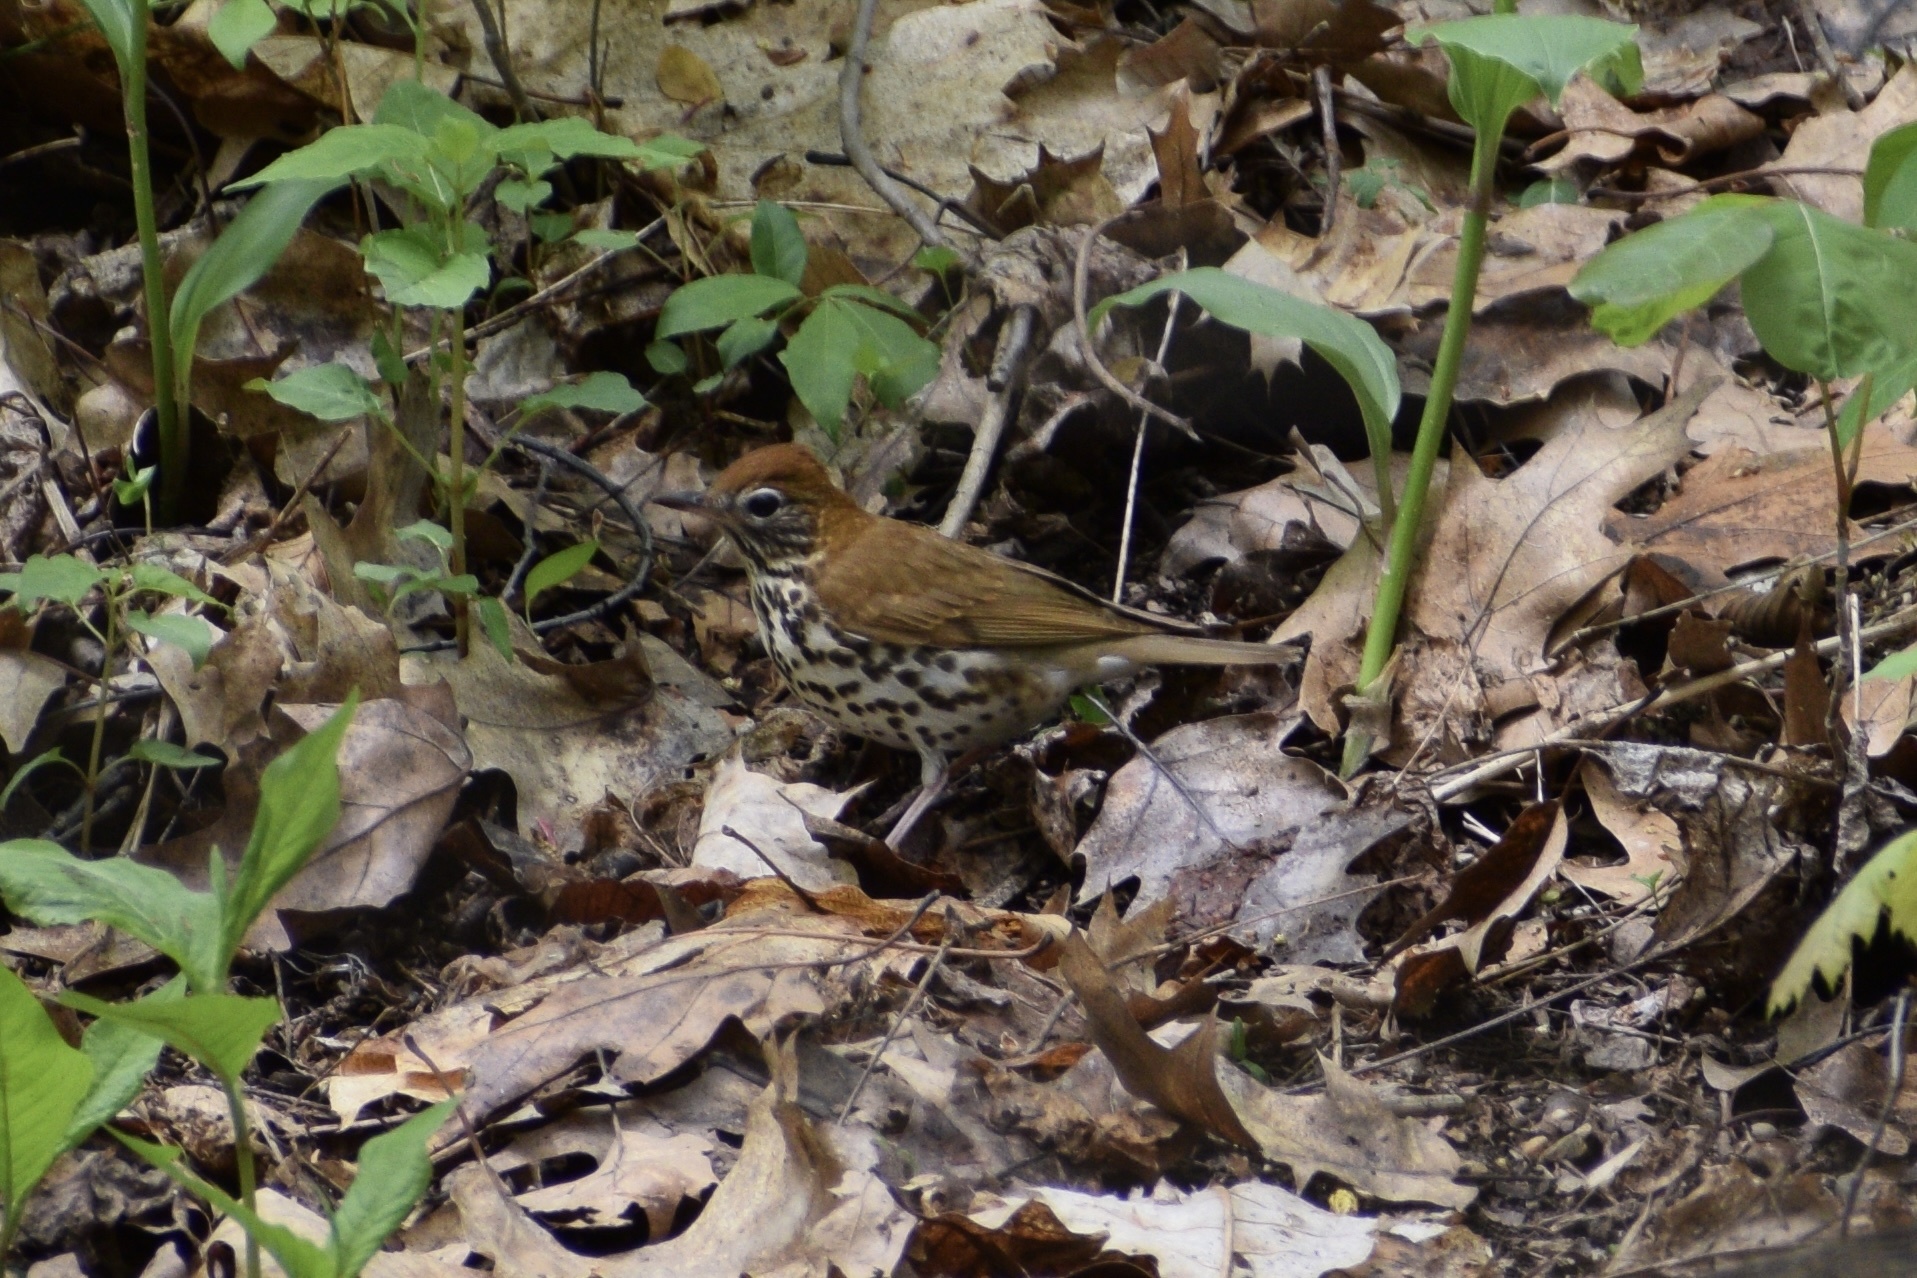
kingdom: Animalia
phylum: Chordata
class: Aves
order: Passeriformes
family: Turdidae
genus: Hylocichla
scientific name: Hylocichla mustelina
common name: Wood thrush
